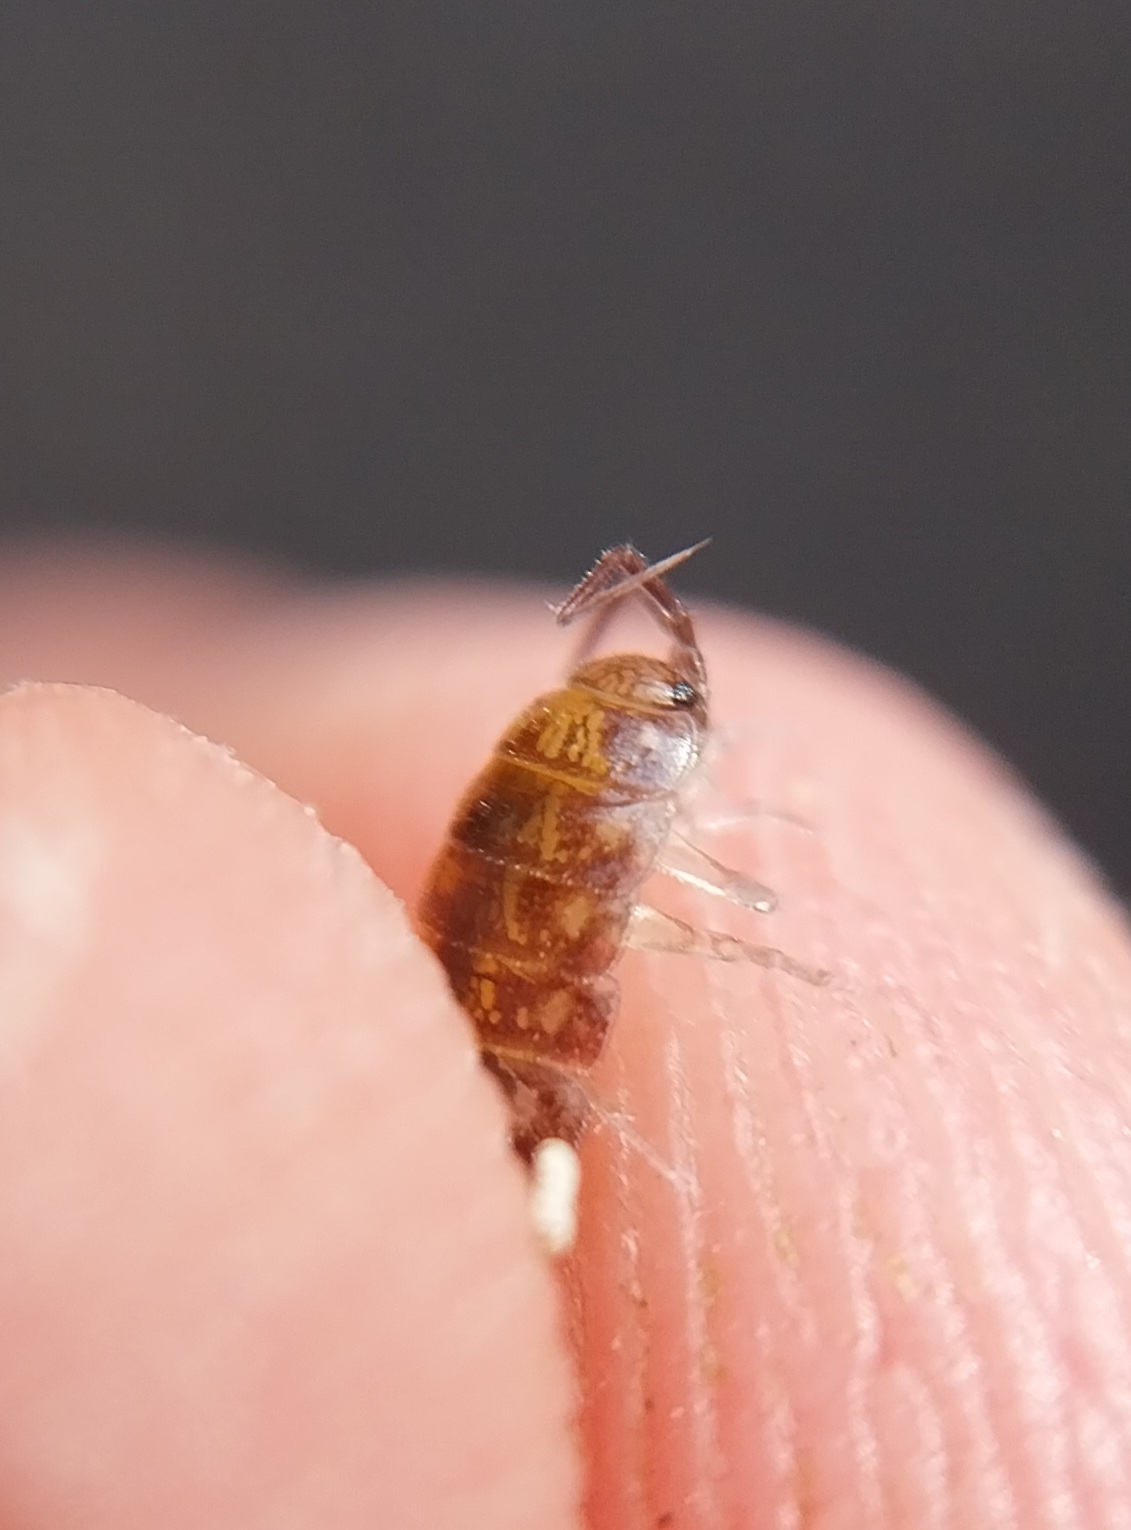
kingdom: Animalia
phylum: Arthropoda
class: Malacostraca
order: Isopoda
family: Philosciidae
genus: Chaetophiloscia
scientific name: Chaetophiloscia cellaria
